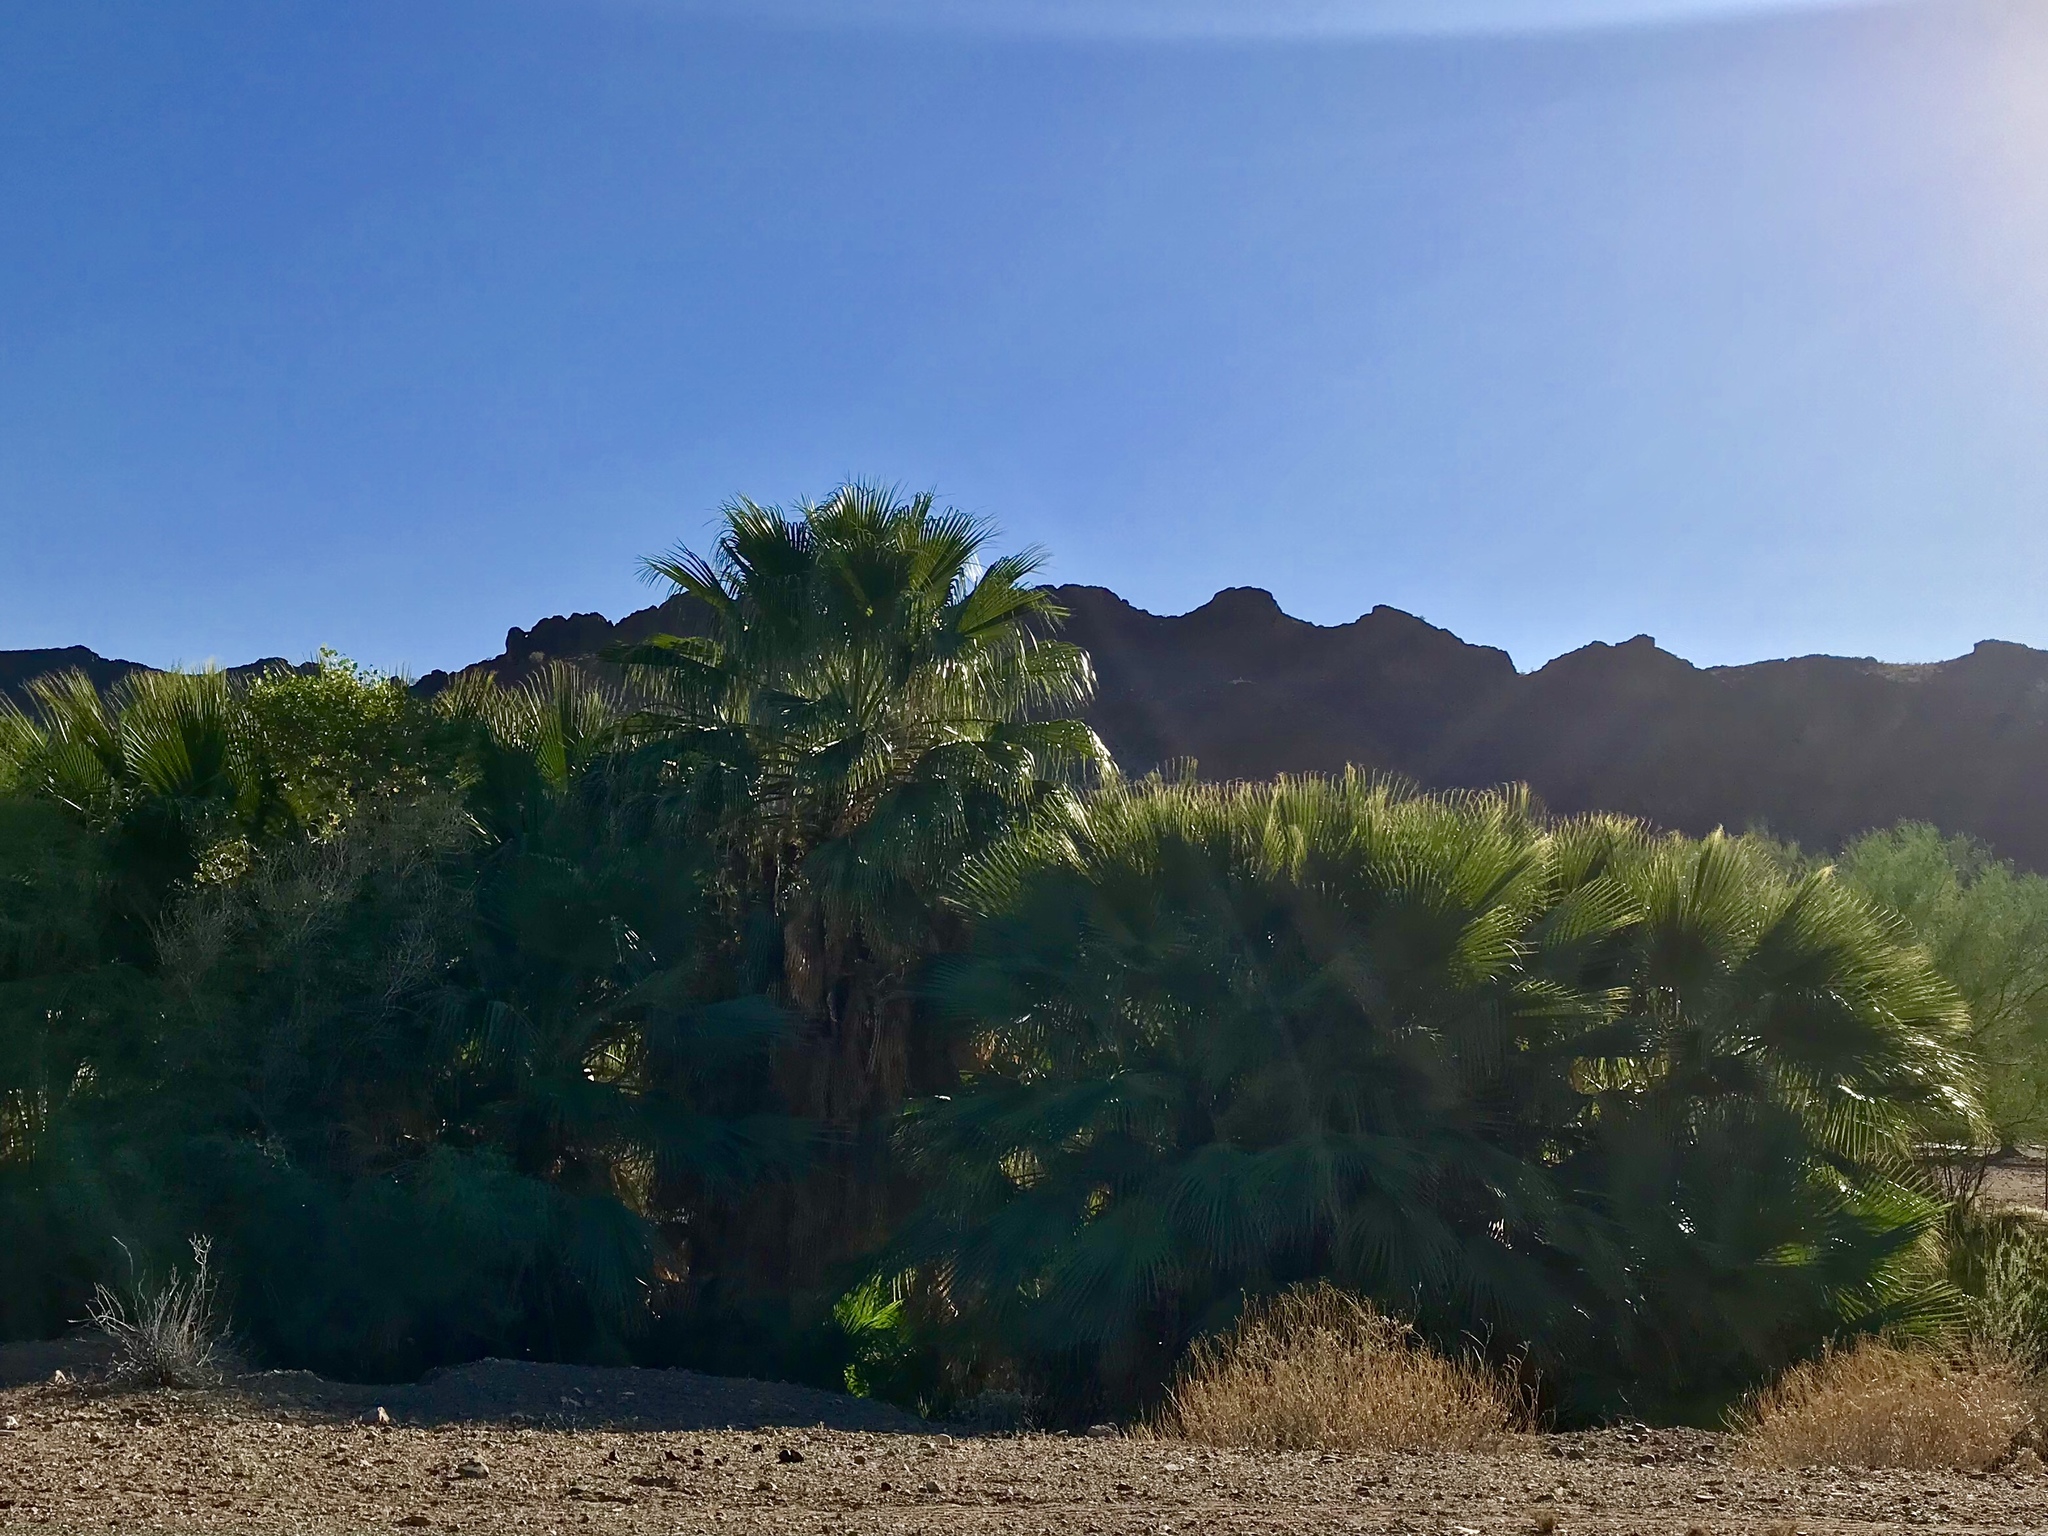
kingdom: Plantae
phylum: Tracheophyta
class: Liliopsida
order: Arecales
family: Arecaceae
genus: Washingtonia
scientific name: Washingtonia filifera
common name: California fan palm
